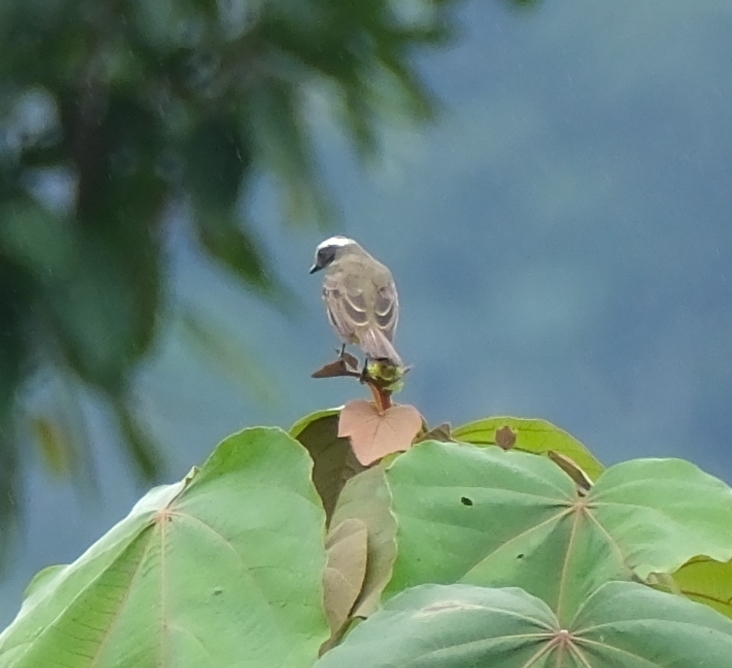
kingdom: Animalia
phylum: Chordata
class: Aves
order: Passeriformes
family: Tyrannidae
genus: Myiozetetes
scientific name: Myiozetetes similis
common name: Social flycatcher
